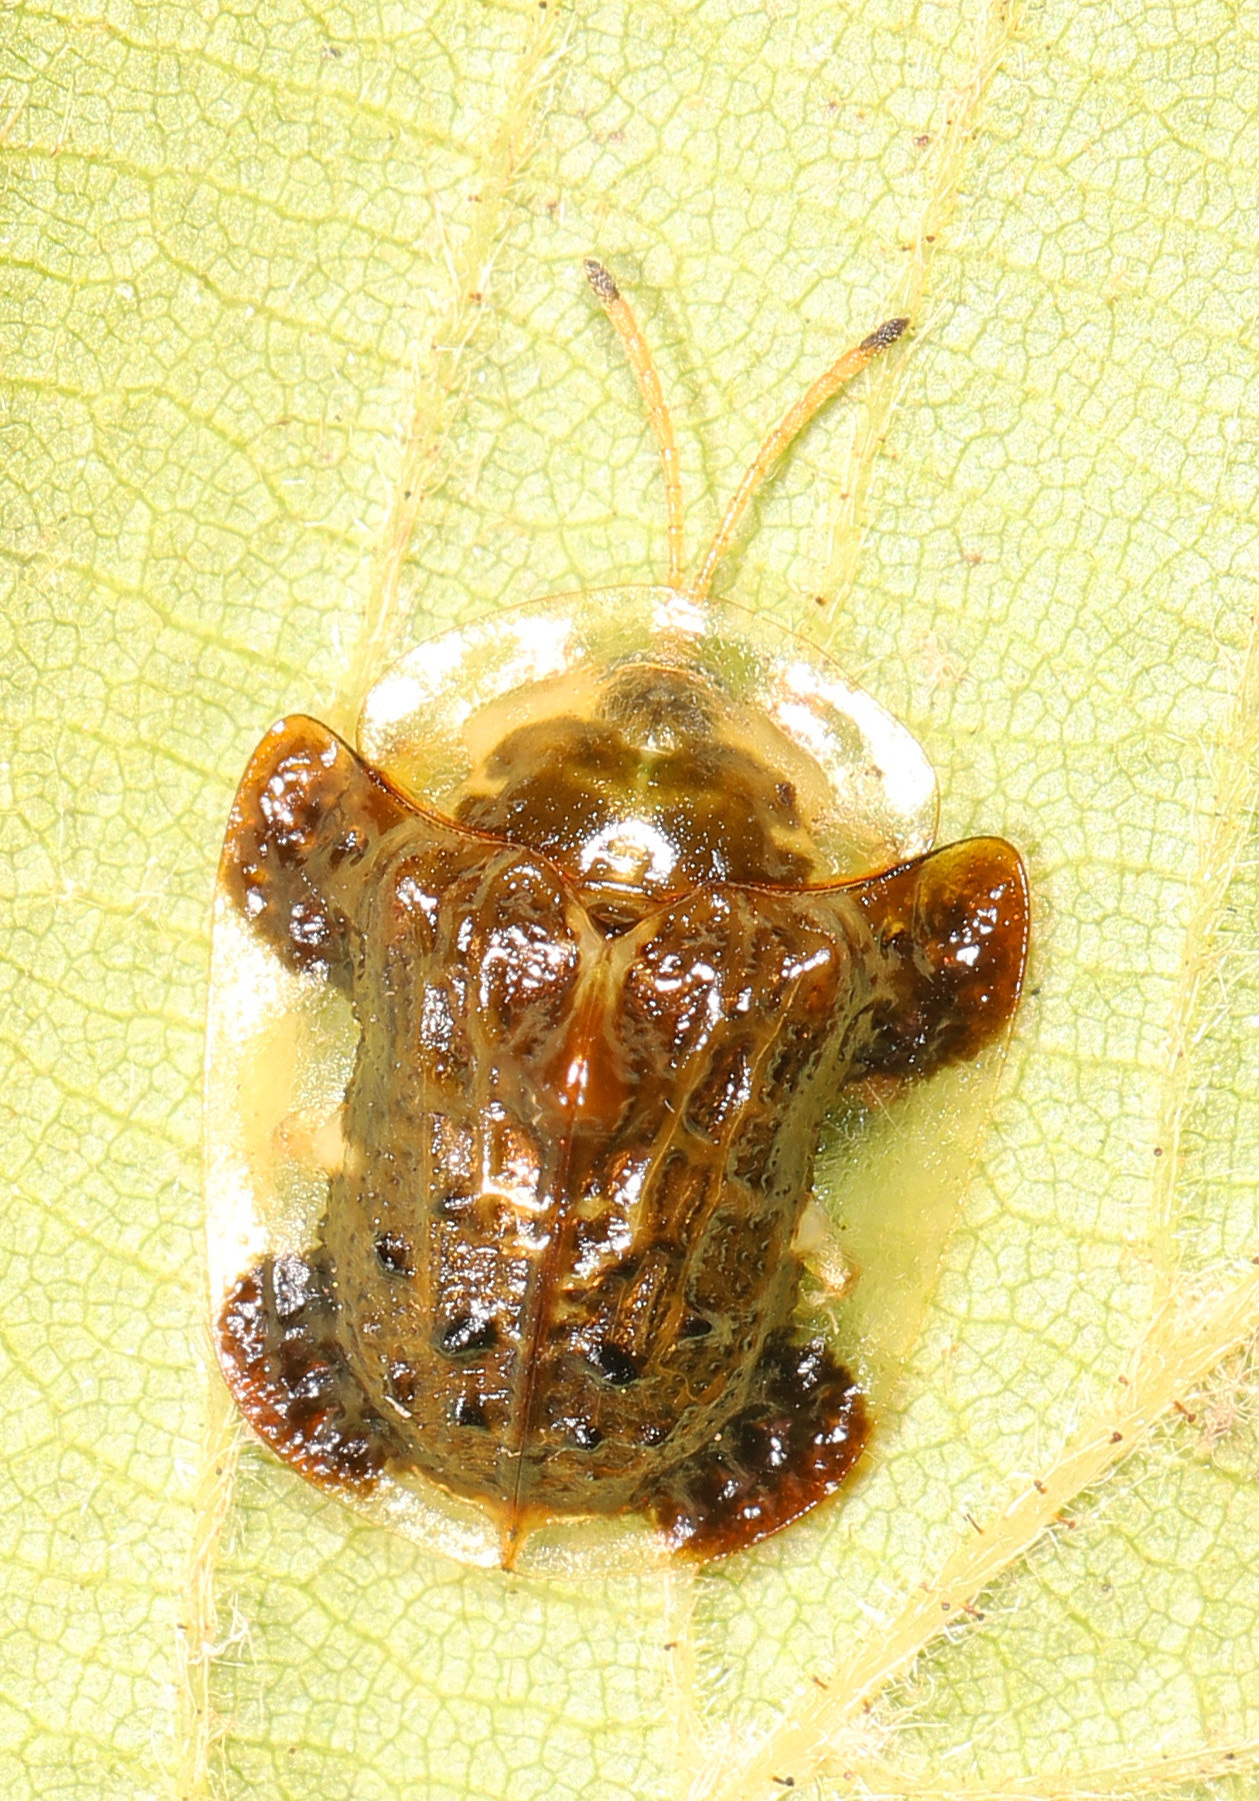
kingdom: Animalia
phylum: Arthropoda
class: Insecta
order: Coleoptera
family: Chrysomelidae
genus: Helocassis
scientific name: Helocassis clavata
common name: Clavate tortoise beetle
